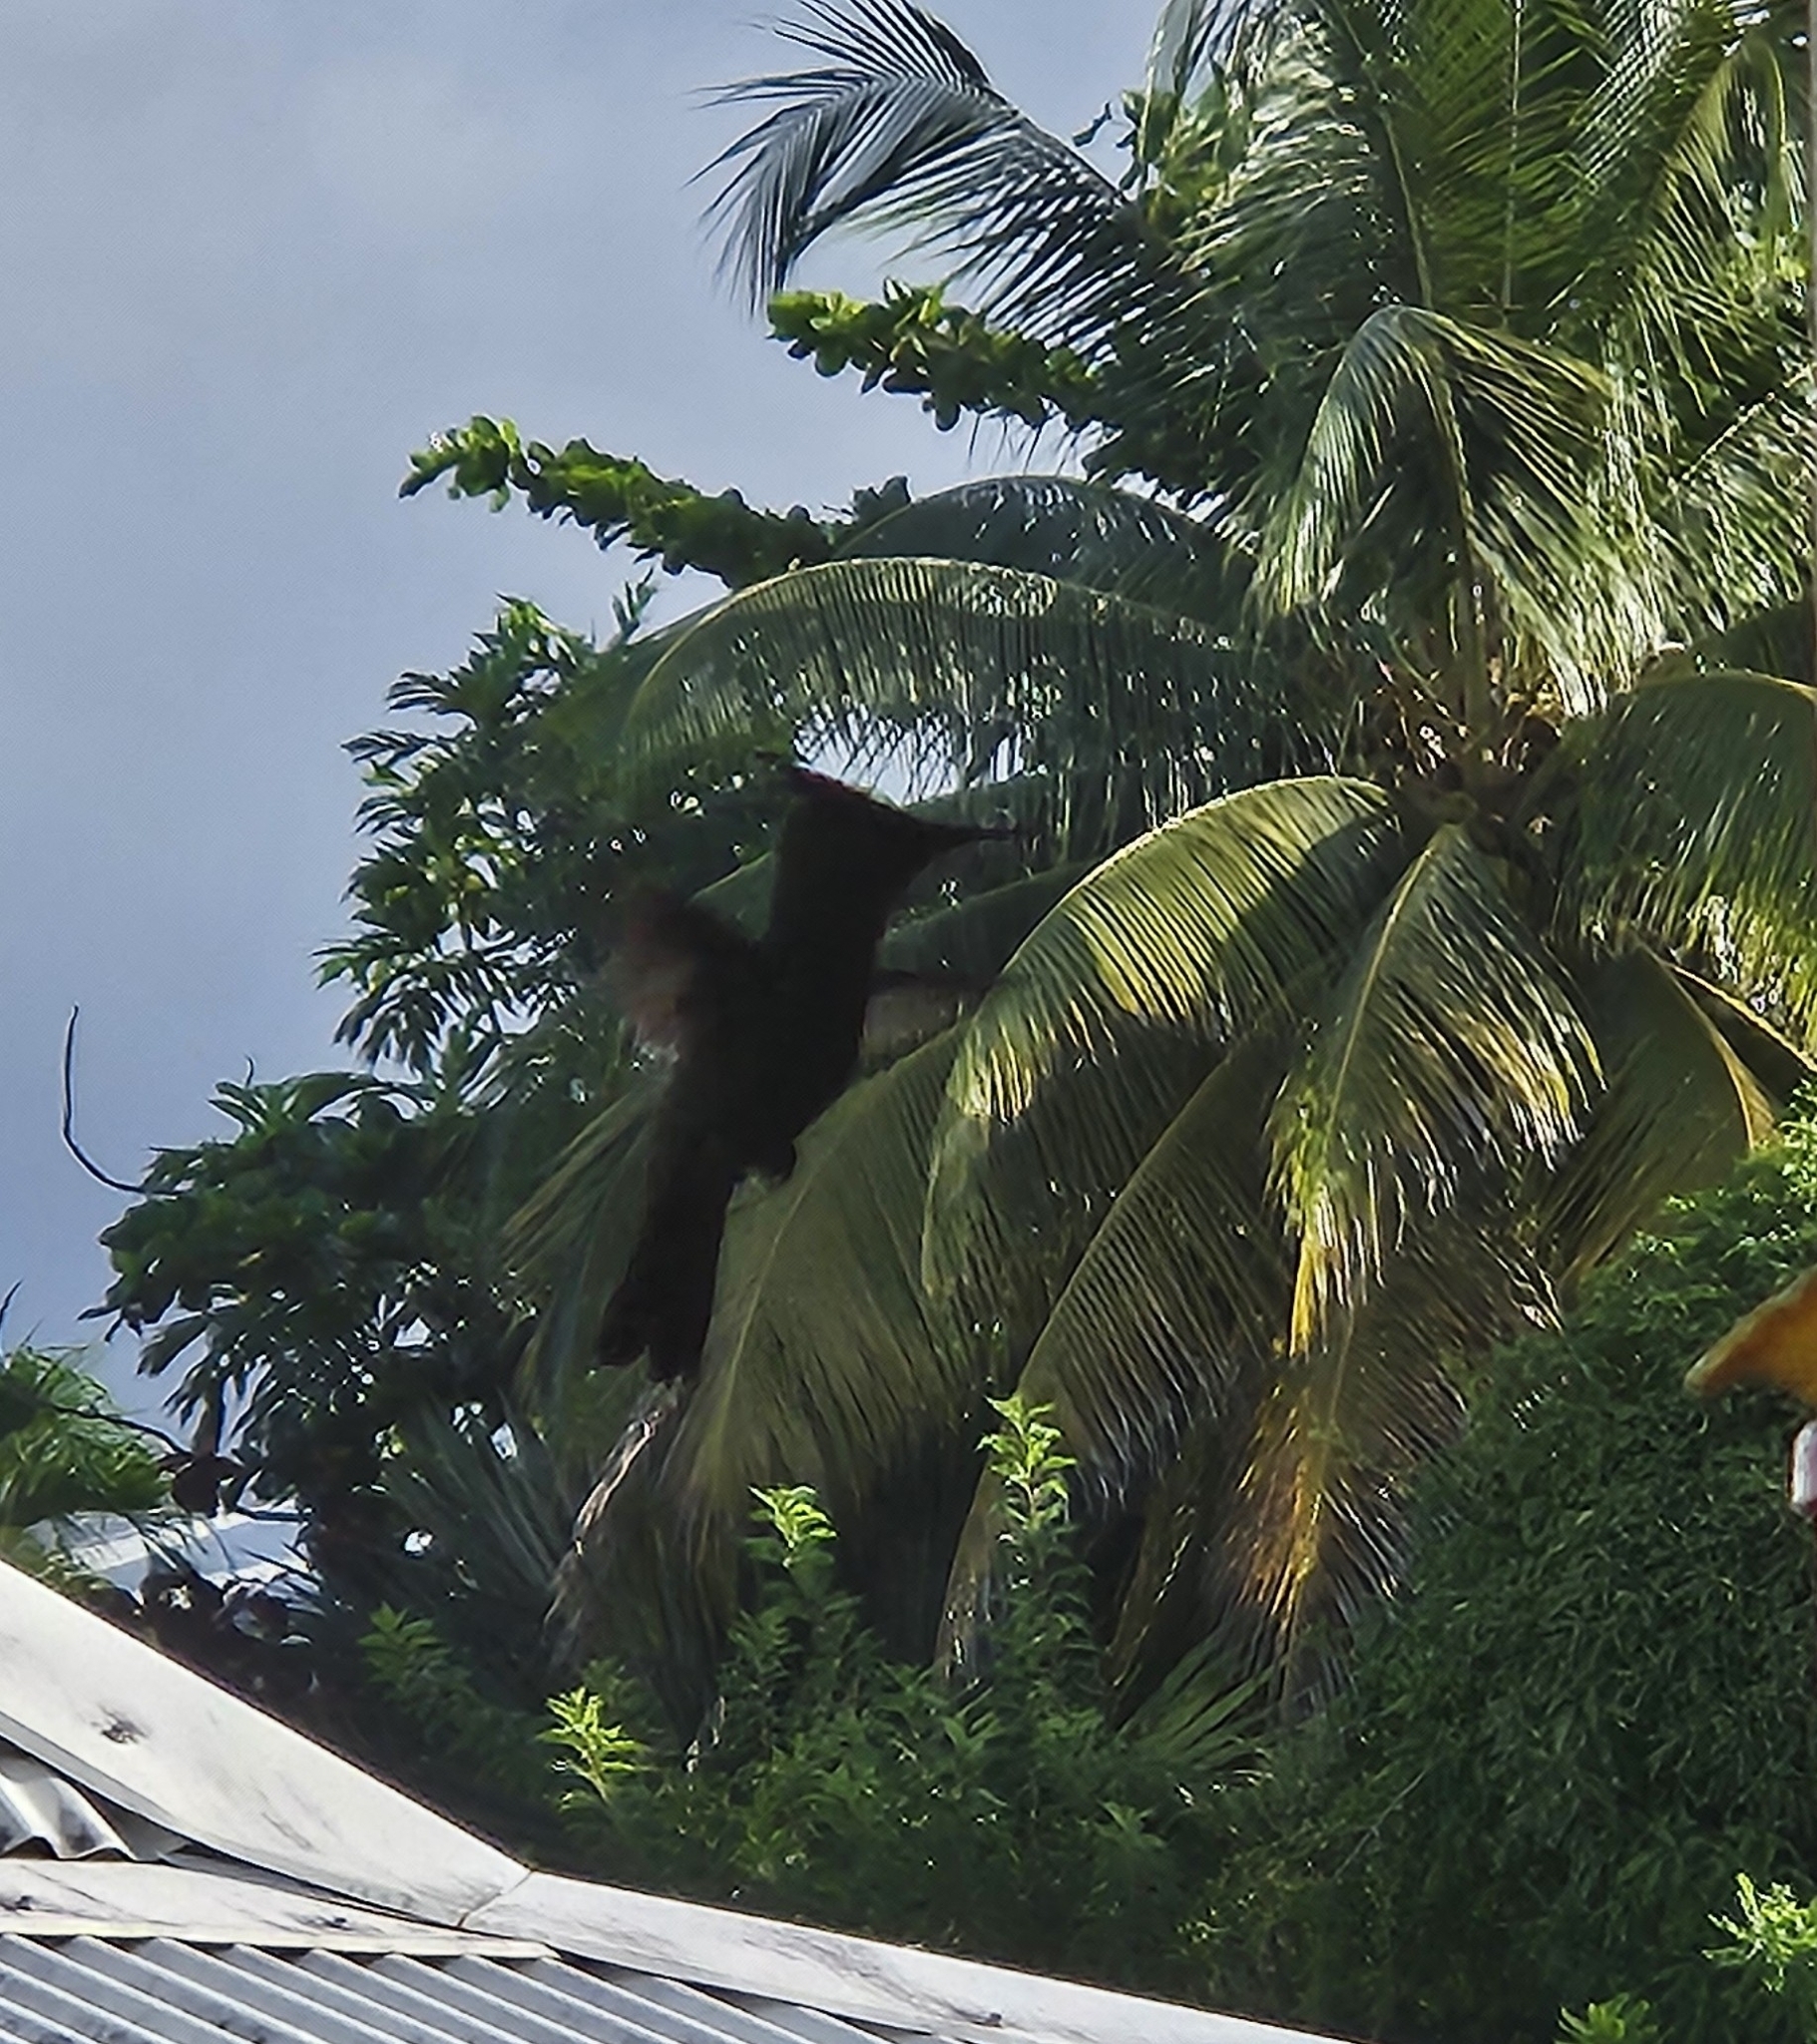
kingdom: Animalia
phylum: Chordata
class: Aves
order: Apodiformes
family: Trochilidae
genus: Orthorhyncus
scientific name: Orthorhyncus cristatus
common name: Antillean crested hummingbird
